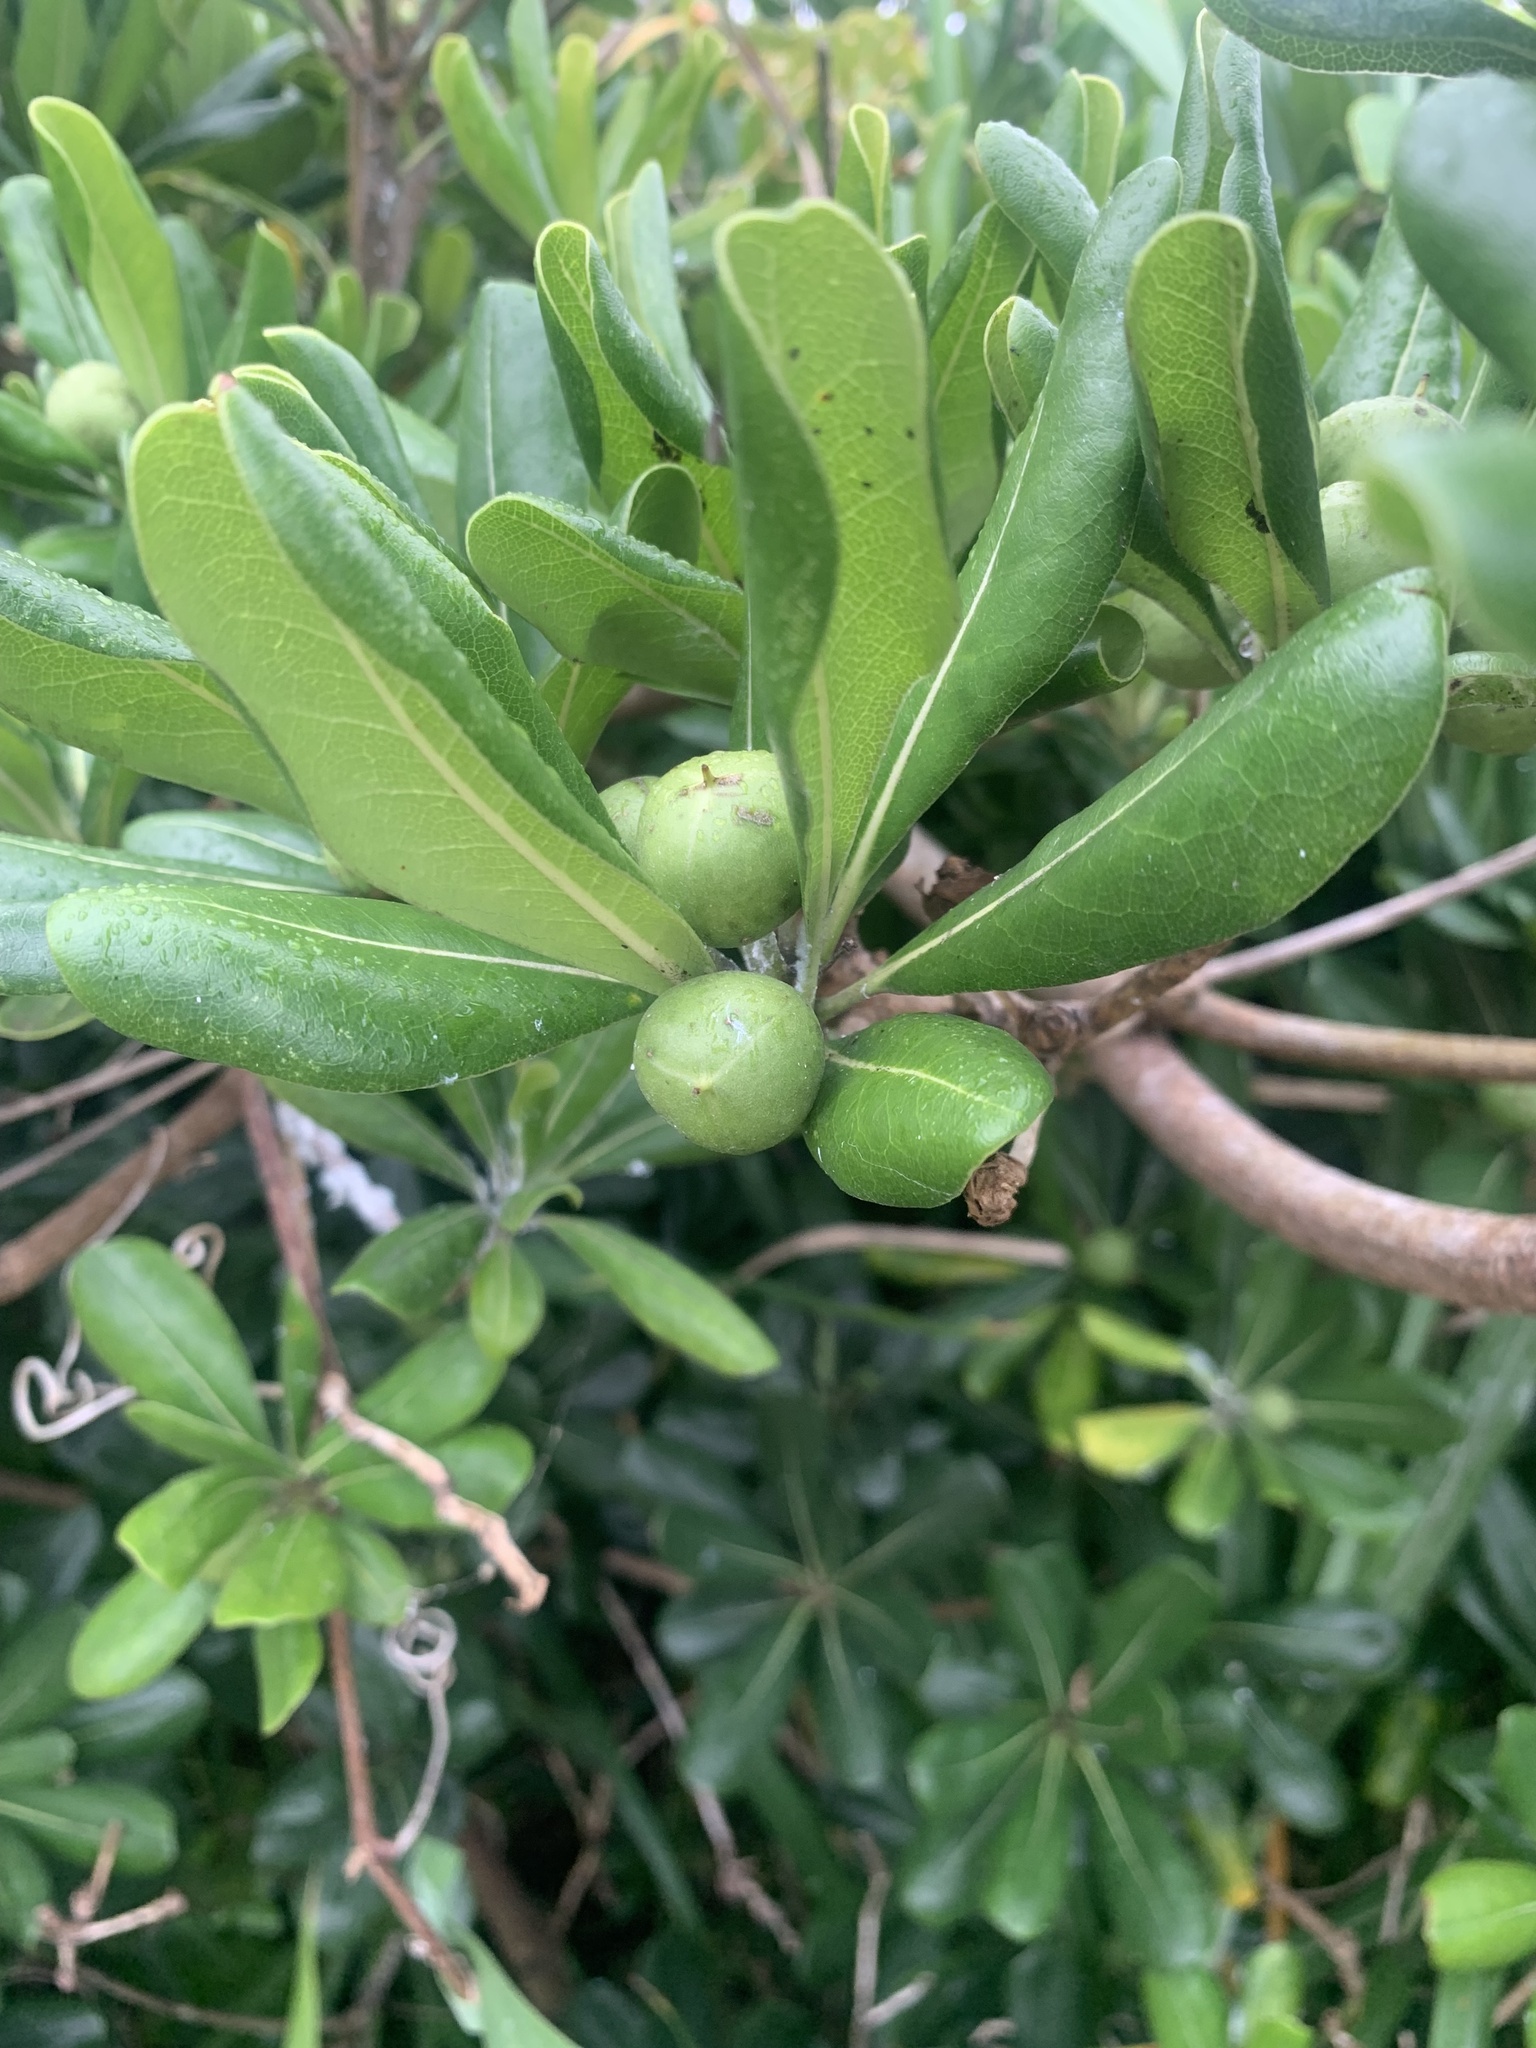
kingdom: Plantae
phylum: Tracheophyta
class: Magnoliopsida
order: Apiales
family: Pittosporaceae
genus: Pittosporum
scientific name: Pittosporum tobira
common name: Japanese cheesewood
